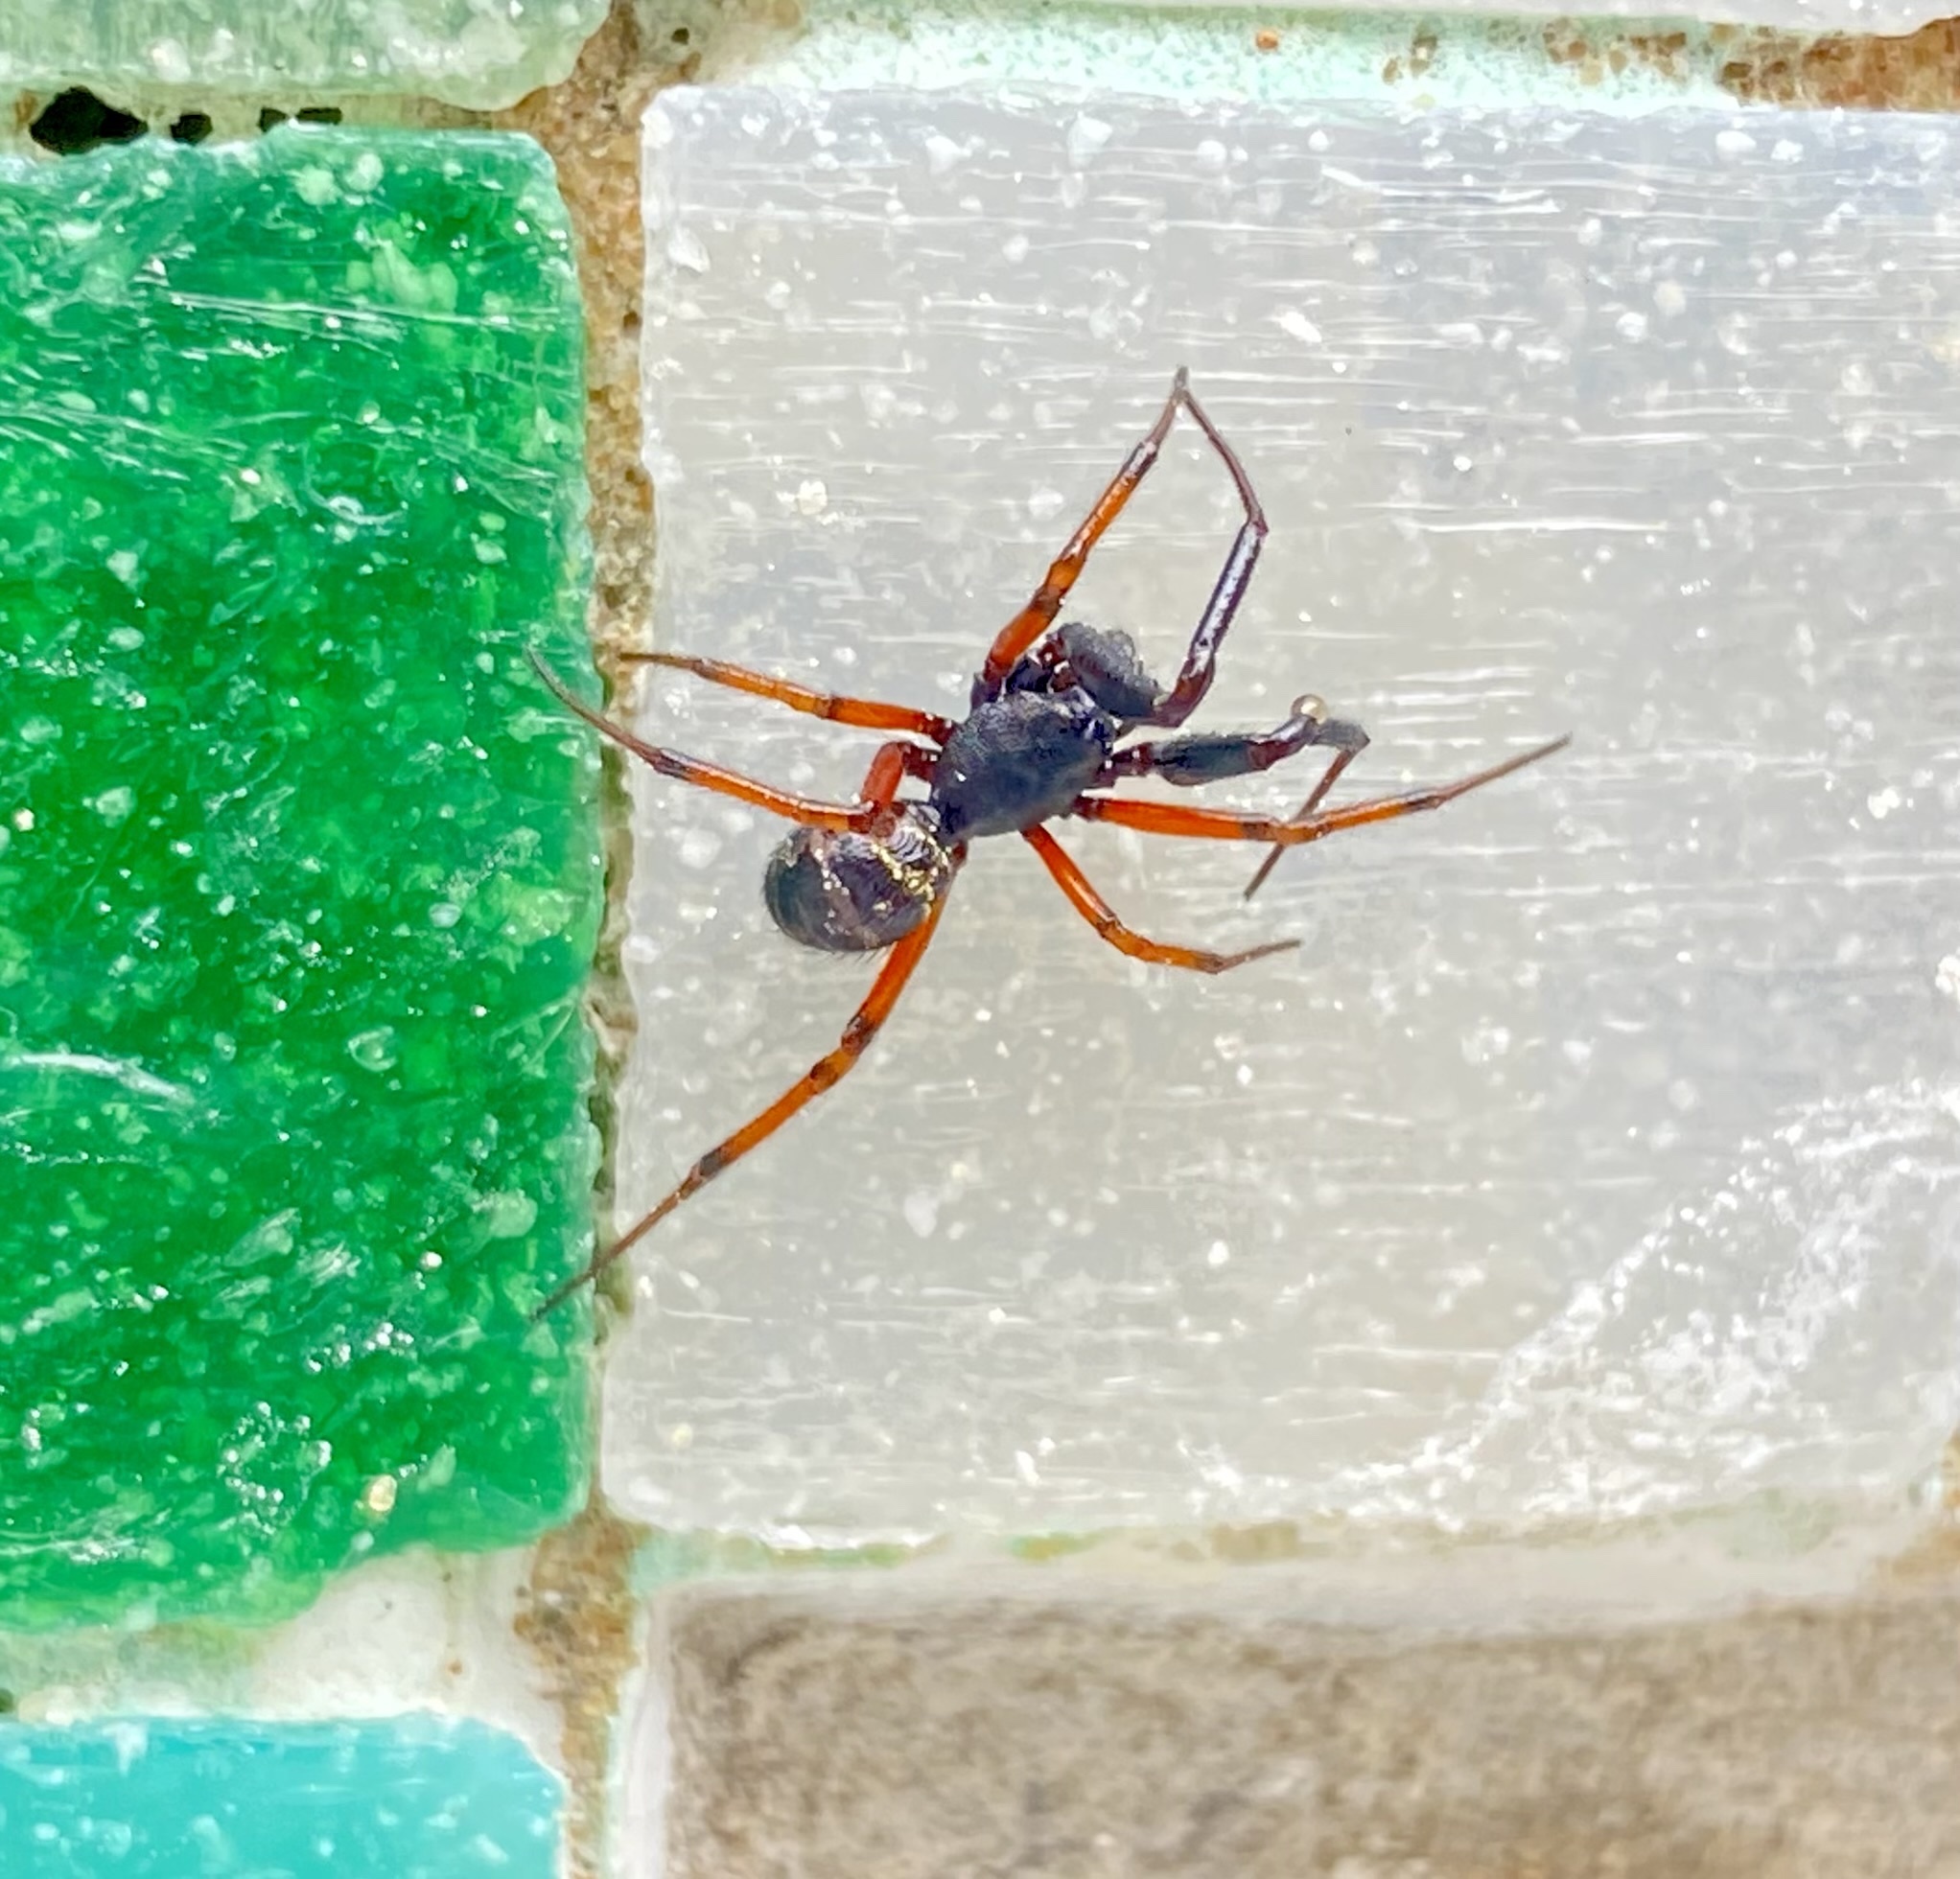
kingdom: Animalia
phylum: Arthropoda
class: Arachnida
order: Araneae
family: Theridiidae
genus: Steatoda
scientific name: Steatoda retorta
